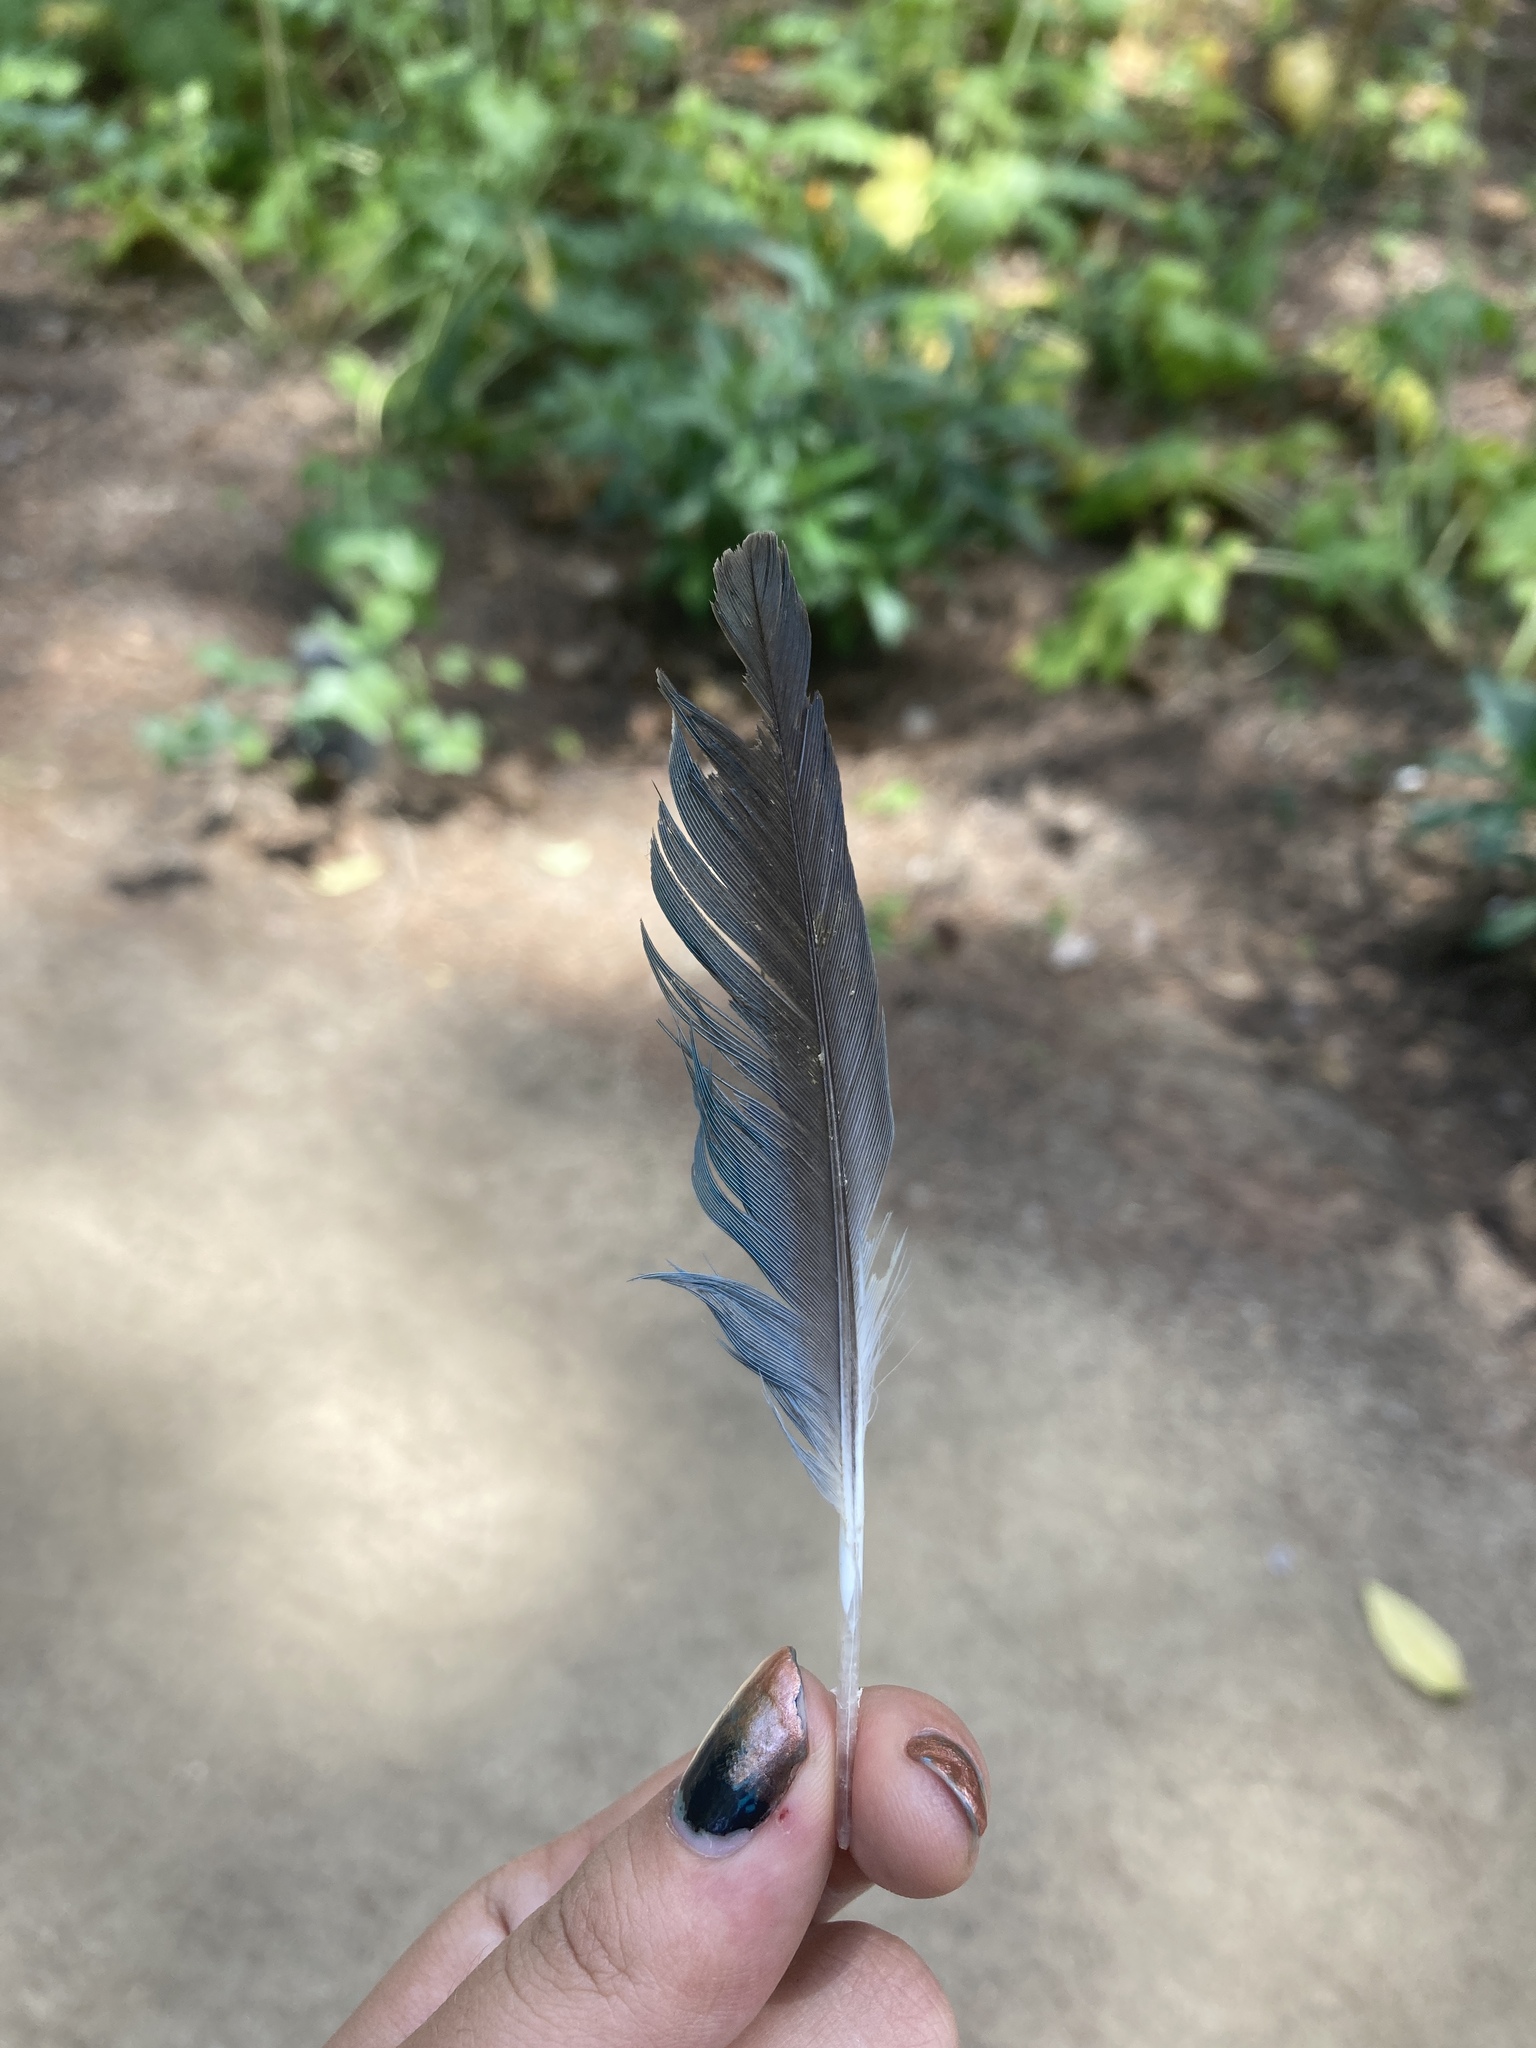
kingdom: Animalia
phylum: Chordata
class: Aves
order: Psittaciformes
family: Psittacidae
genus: Myiopsitta
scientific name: Myiopsitta monachus
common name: Monk parakeet
